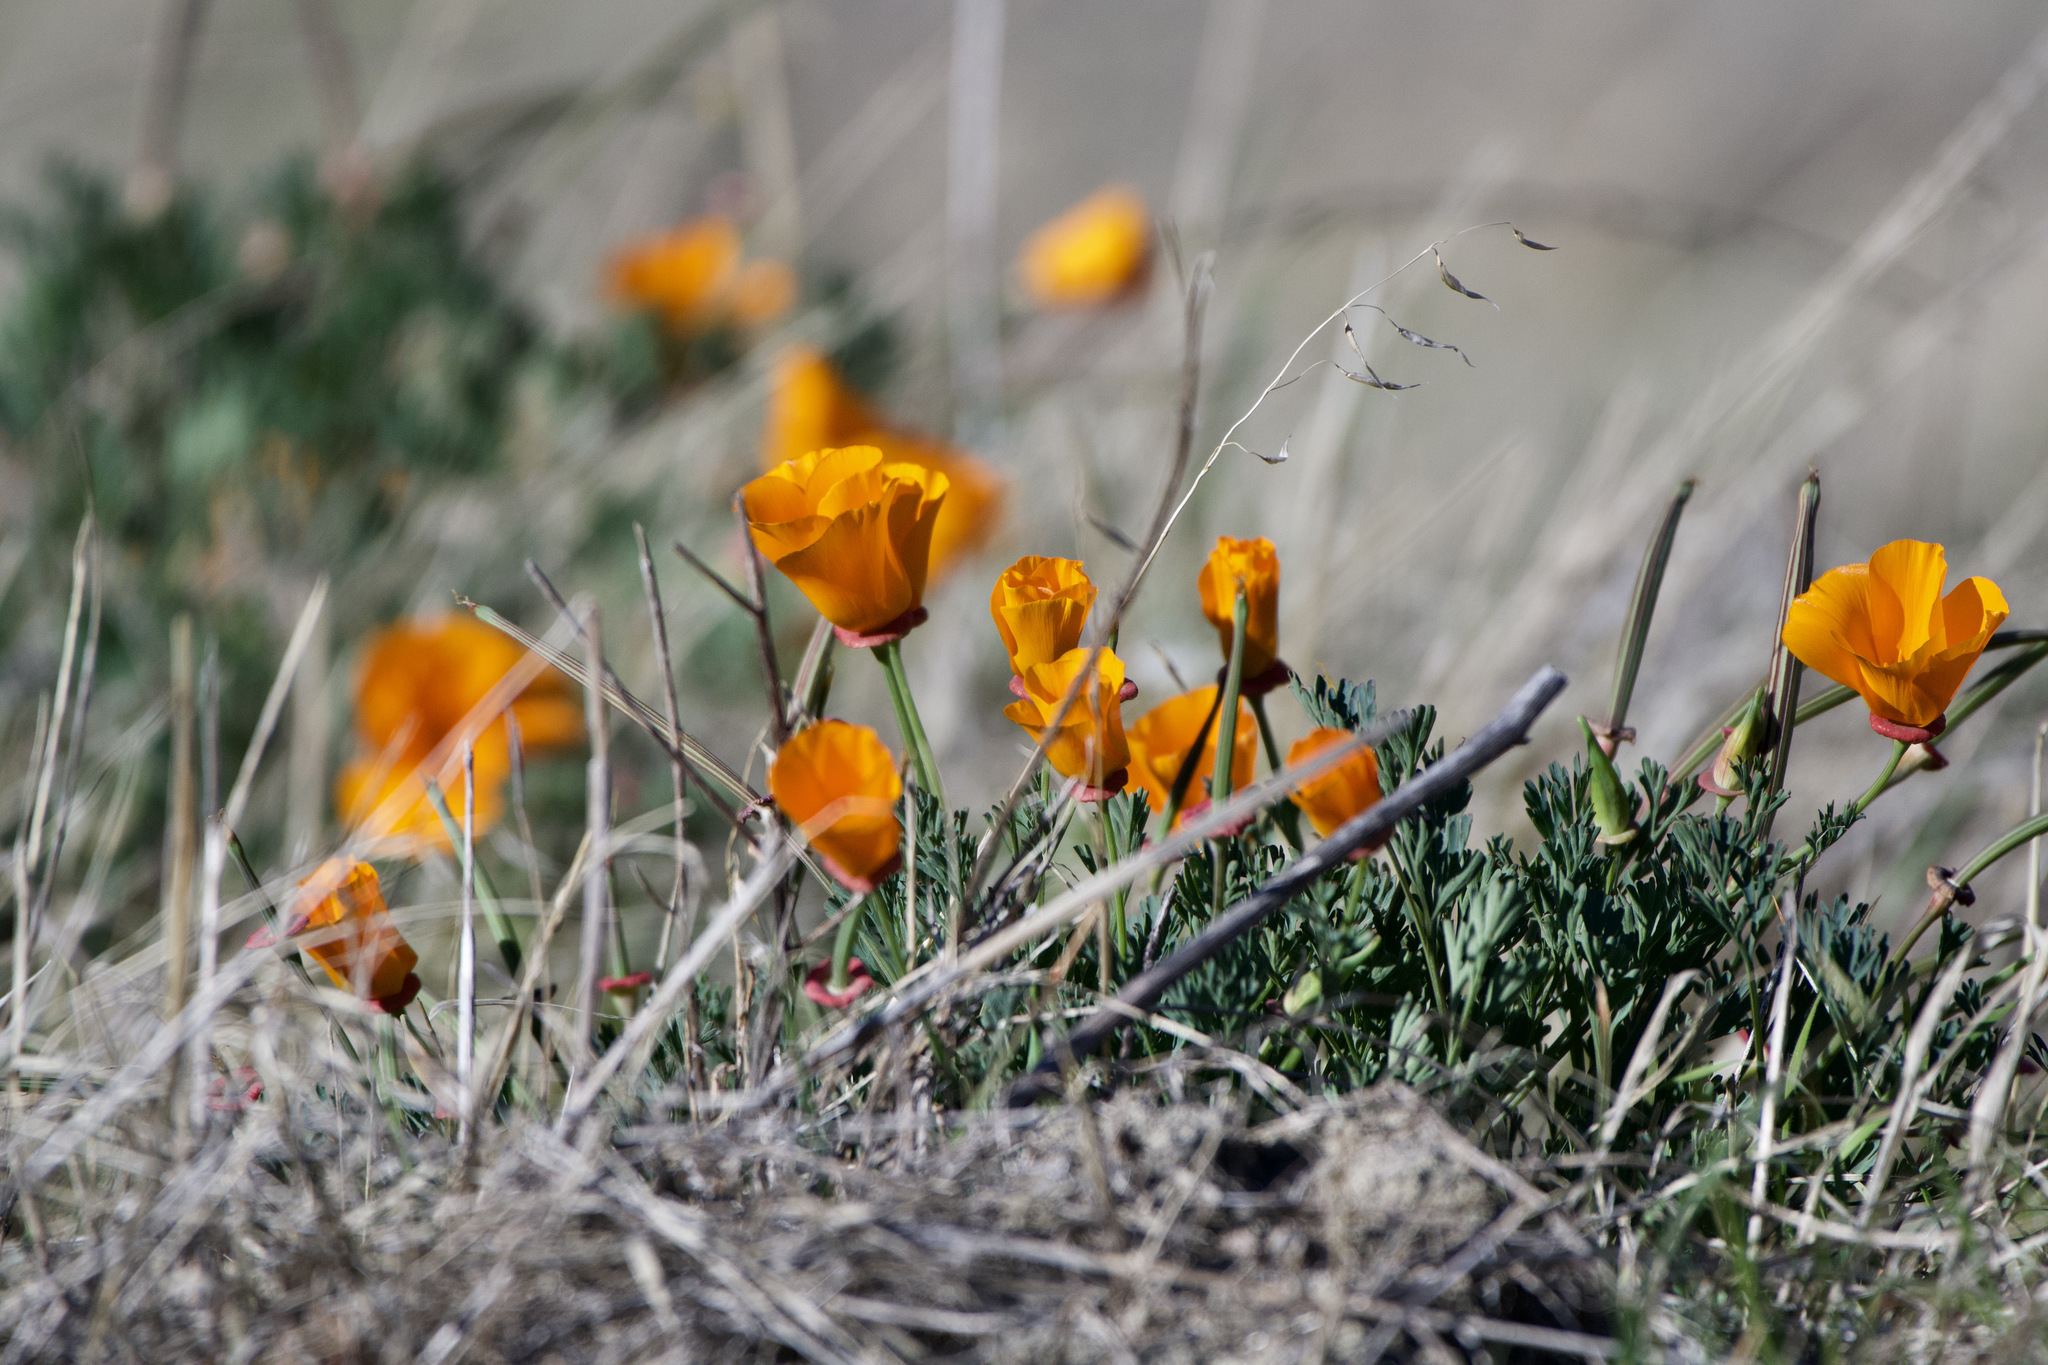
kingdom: Plantae
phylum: Tracheophyta
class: Magnoliopsida
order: Ranunculales
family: Papaveraceae
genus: Eschscholzia
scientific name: Eschscholzia californica
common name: California poppy
